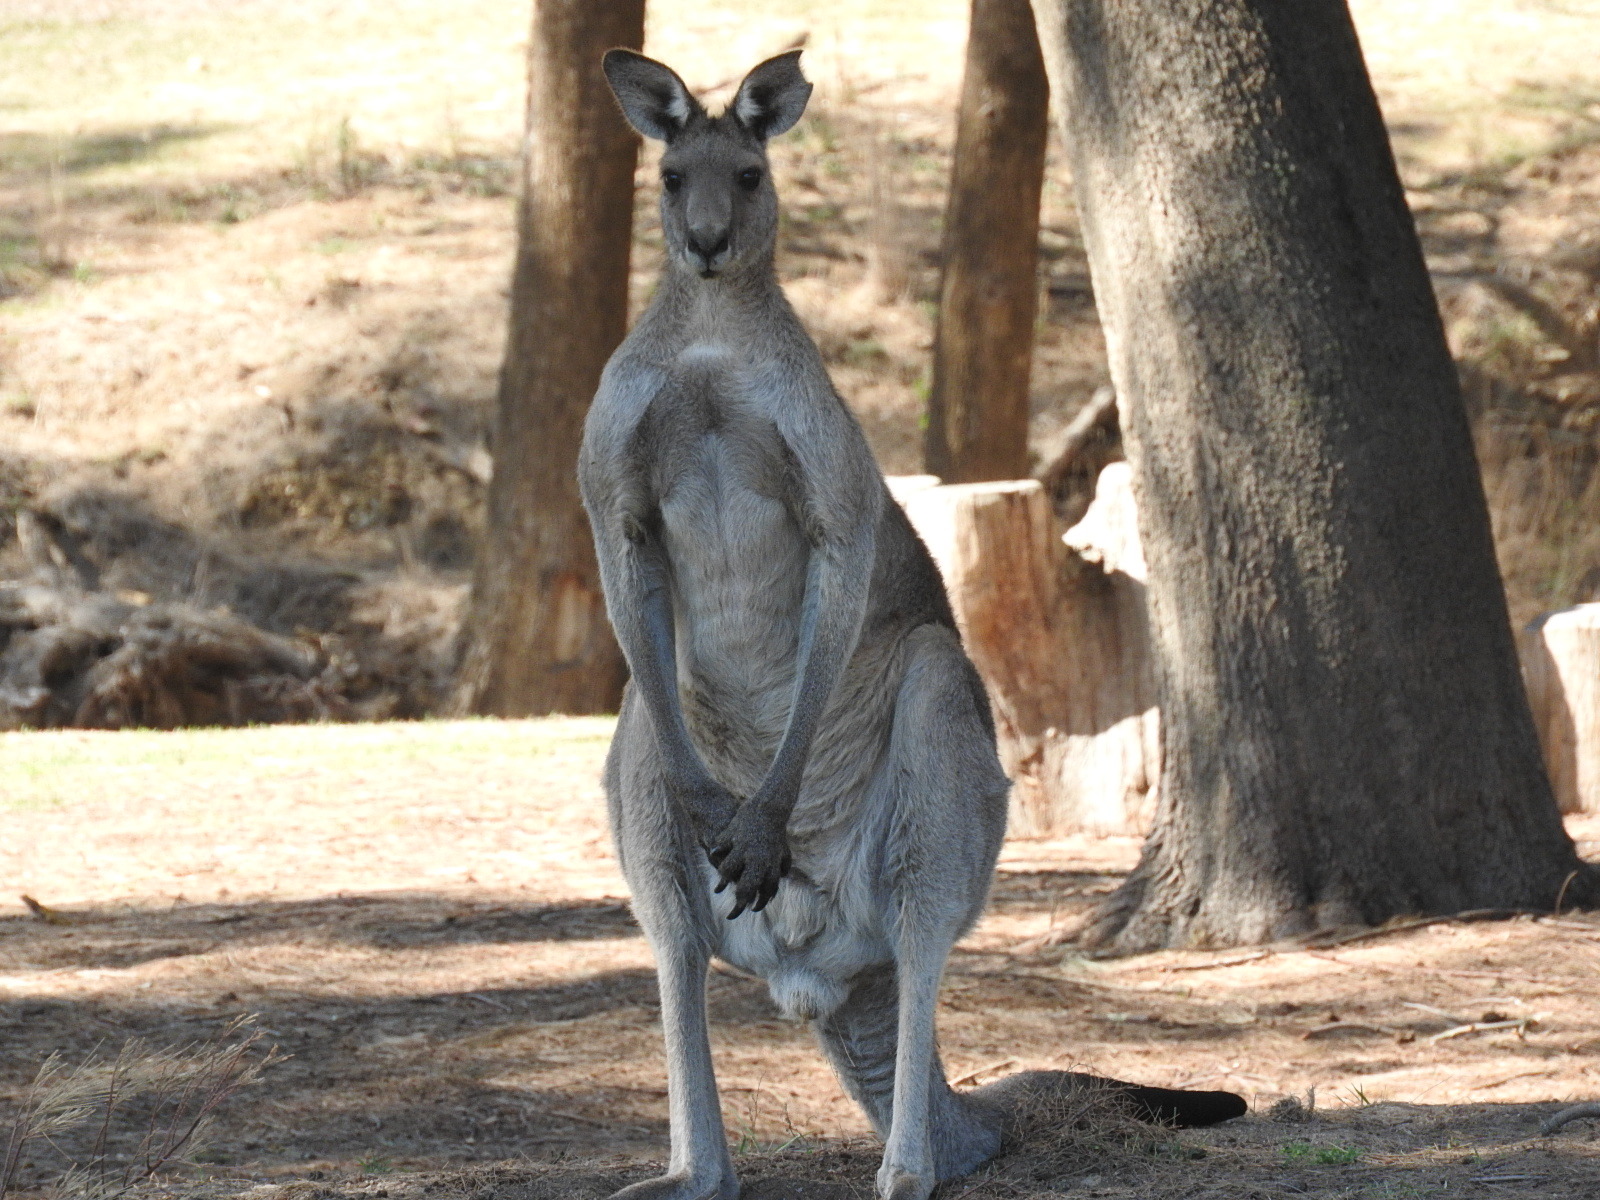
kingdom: Animalia
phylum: Chordata
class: Mammalia
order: Diprotodontia
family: Macropodidae
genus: Macropus
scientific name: Macropus giganteus
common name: Eastern grey kangaroo
